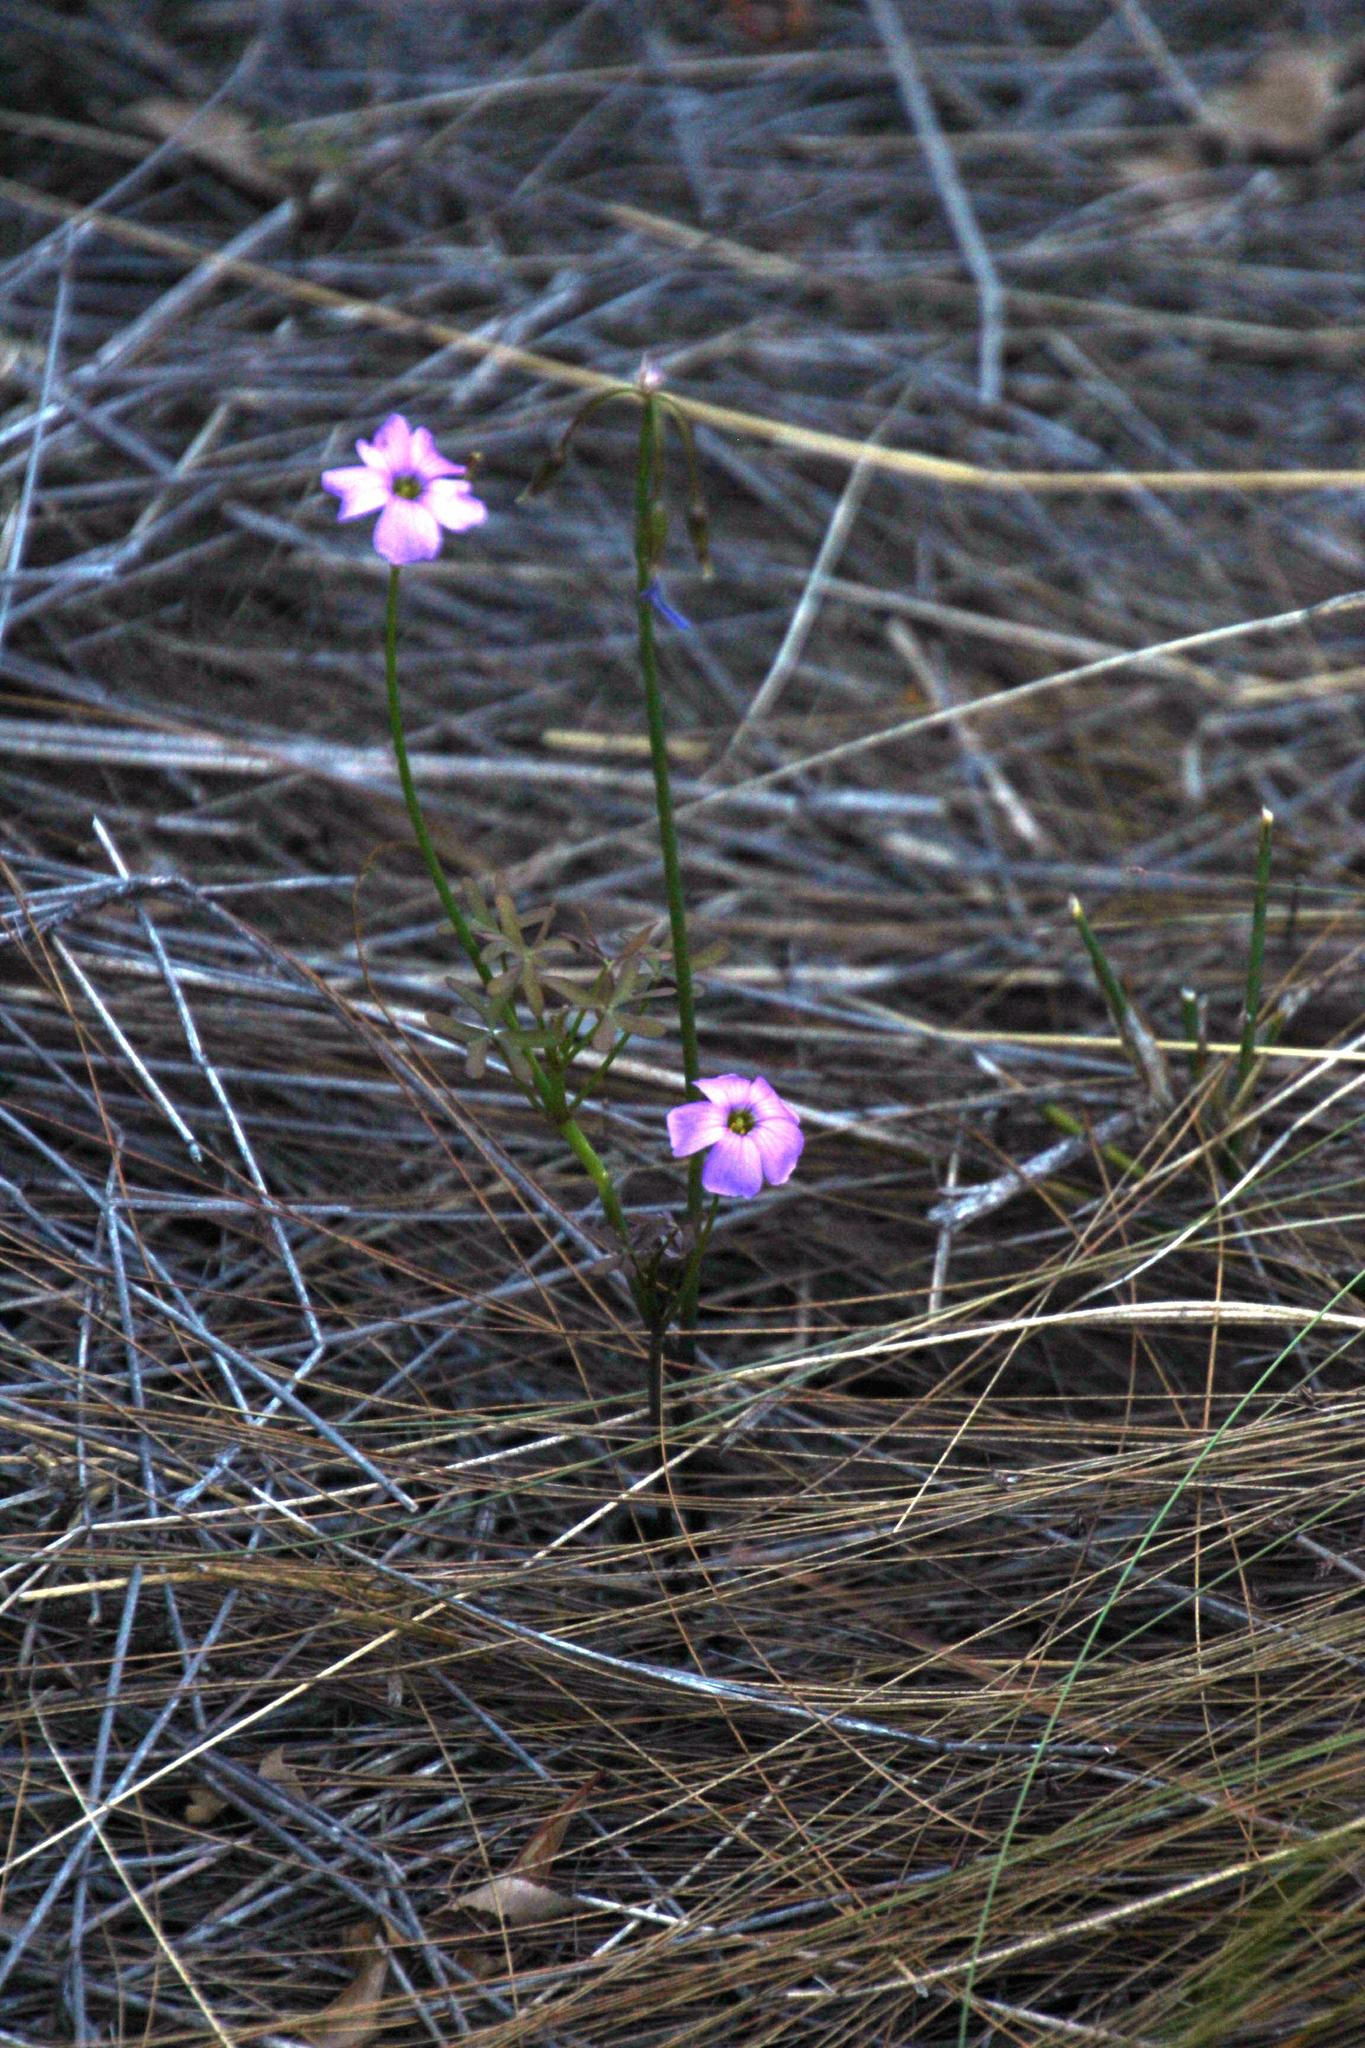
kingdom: Plantae
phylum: Tracheophyta
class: Magnoliopsida
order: Oxalidales
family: Oxalidaceae
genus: Oxalis
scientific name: Oxalis livida
